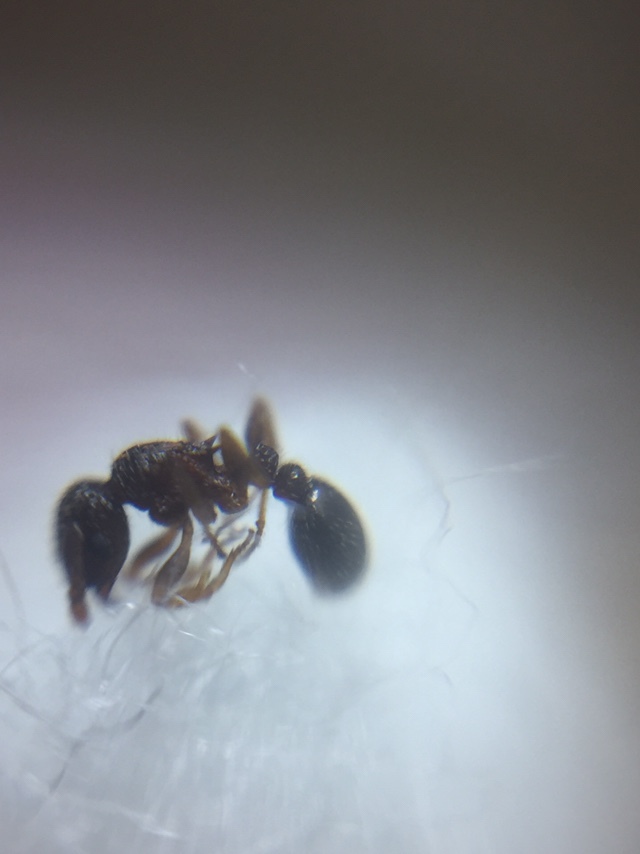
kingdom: Animalia
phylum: Arthropoda
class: Insecta
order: Hymenoptera
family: Formicidae
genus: Tetramorium
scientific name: Tetramorium smithi
